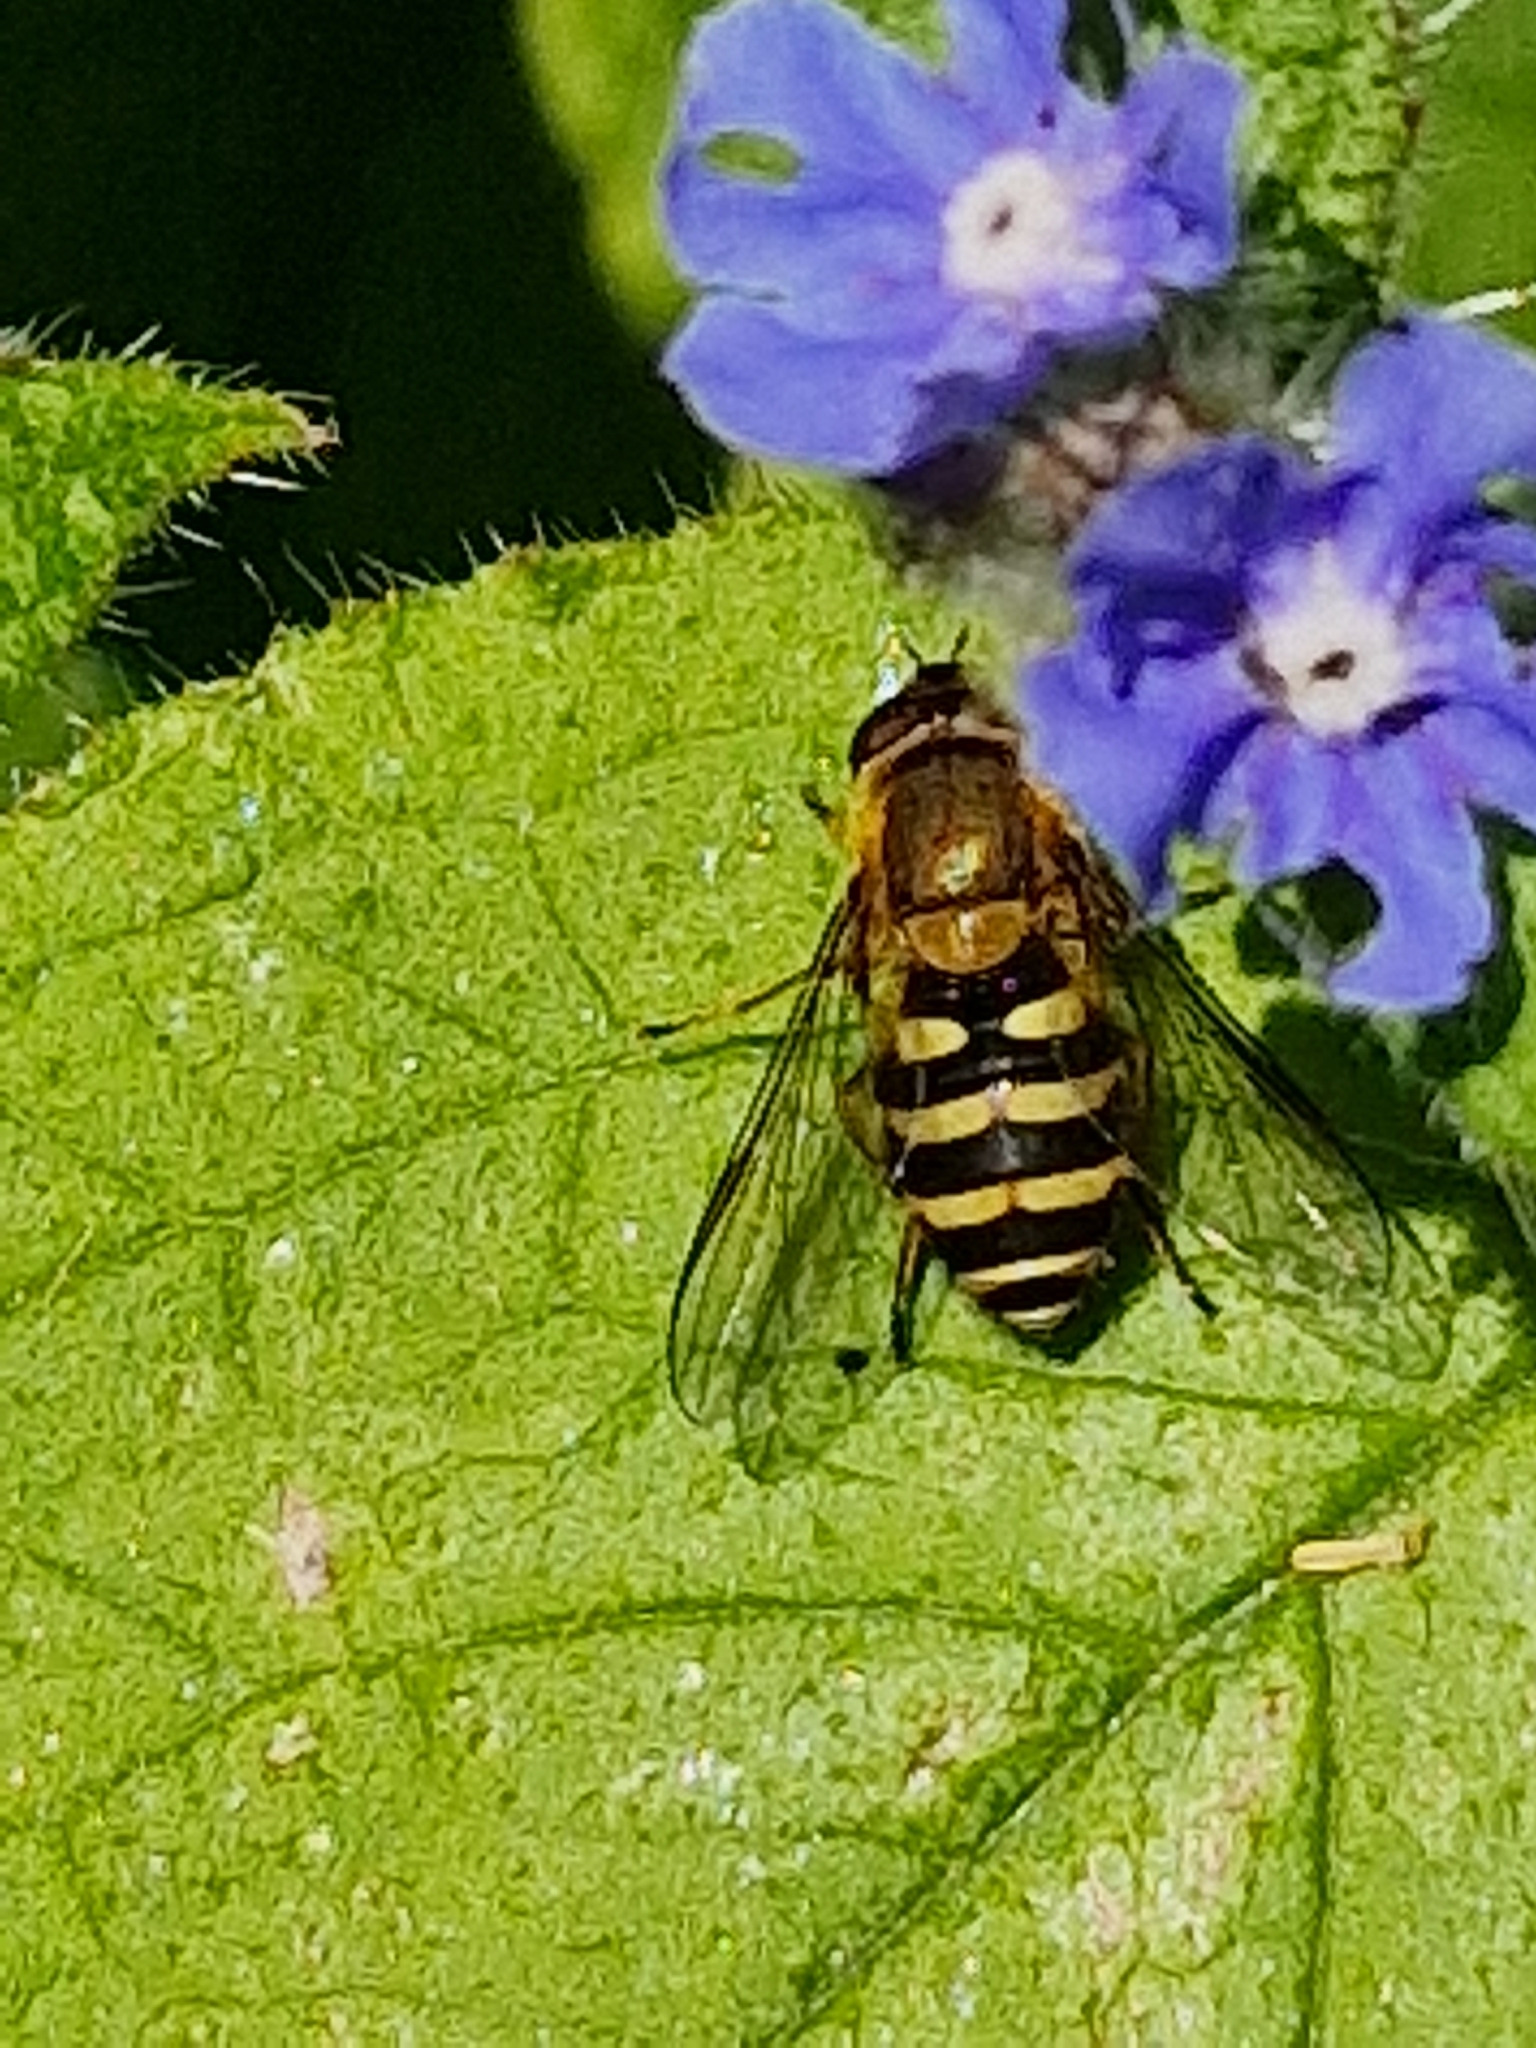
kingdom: Animalia
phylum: Arthropoda
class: Insecta
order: Diptera
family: Syrphidae
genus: Syrphus
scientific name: Syrphus
